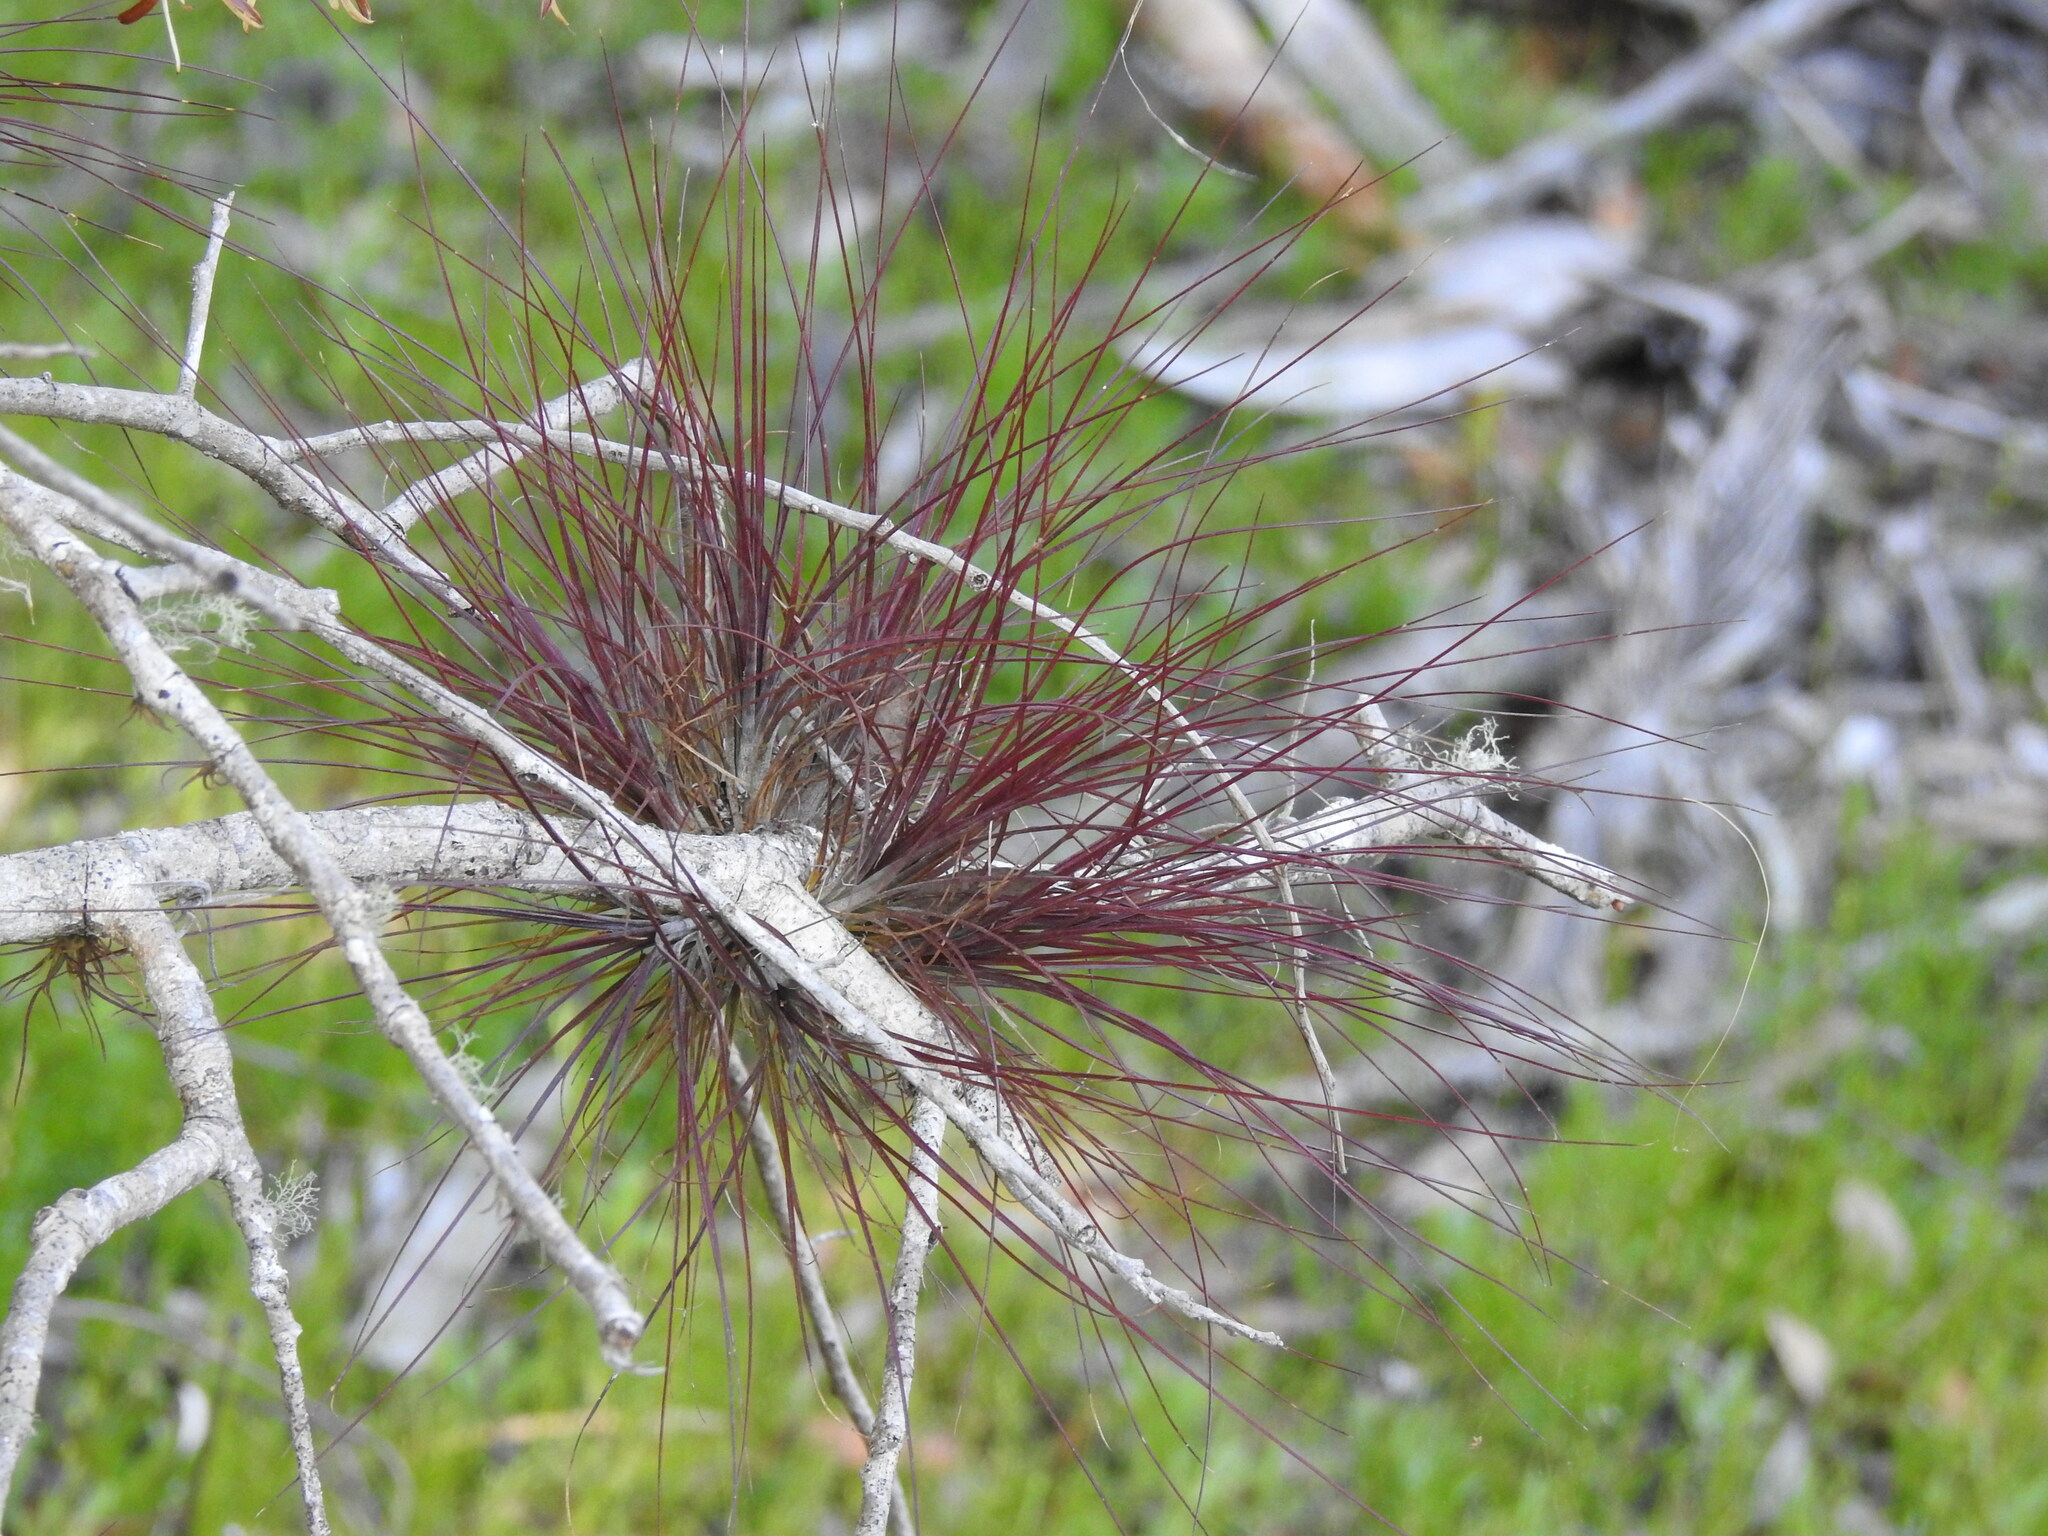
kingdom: Plantae
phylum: Tracheophyta
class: Liliopsida
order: Poales
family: Bromeliaceae
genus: Tillandsia
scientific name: Tillandsia setacea
